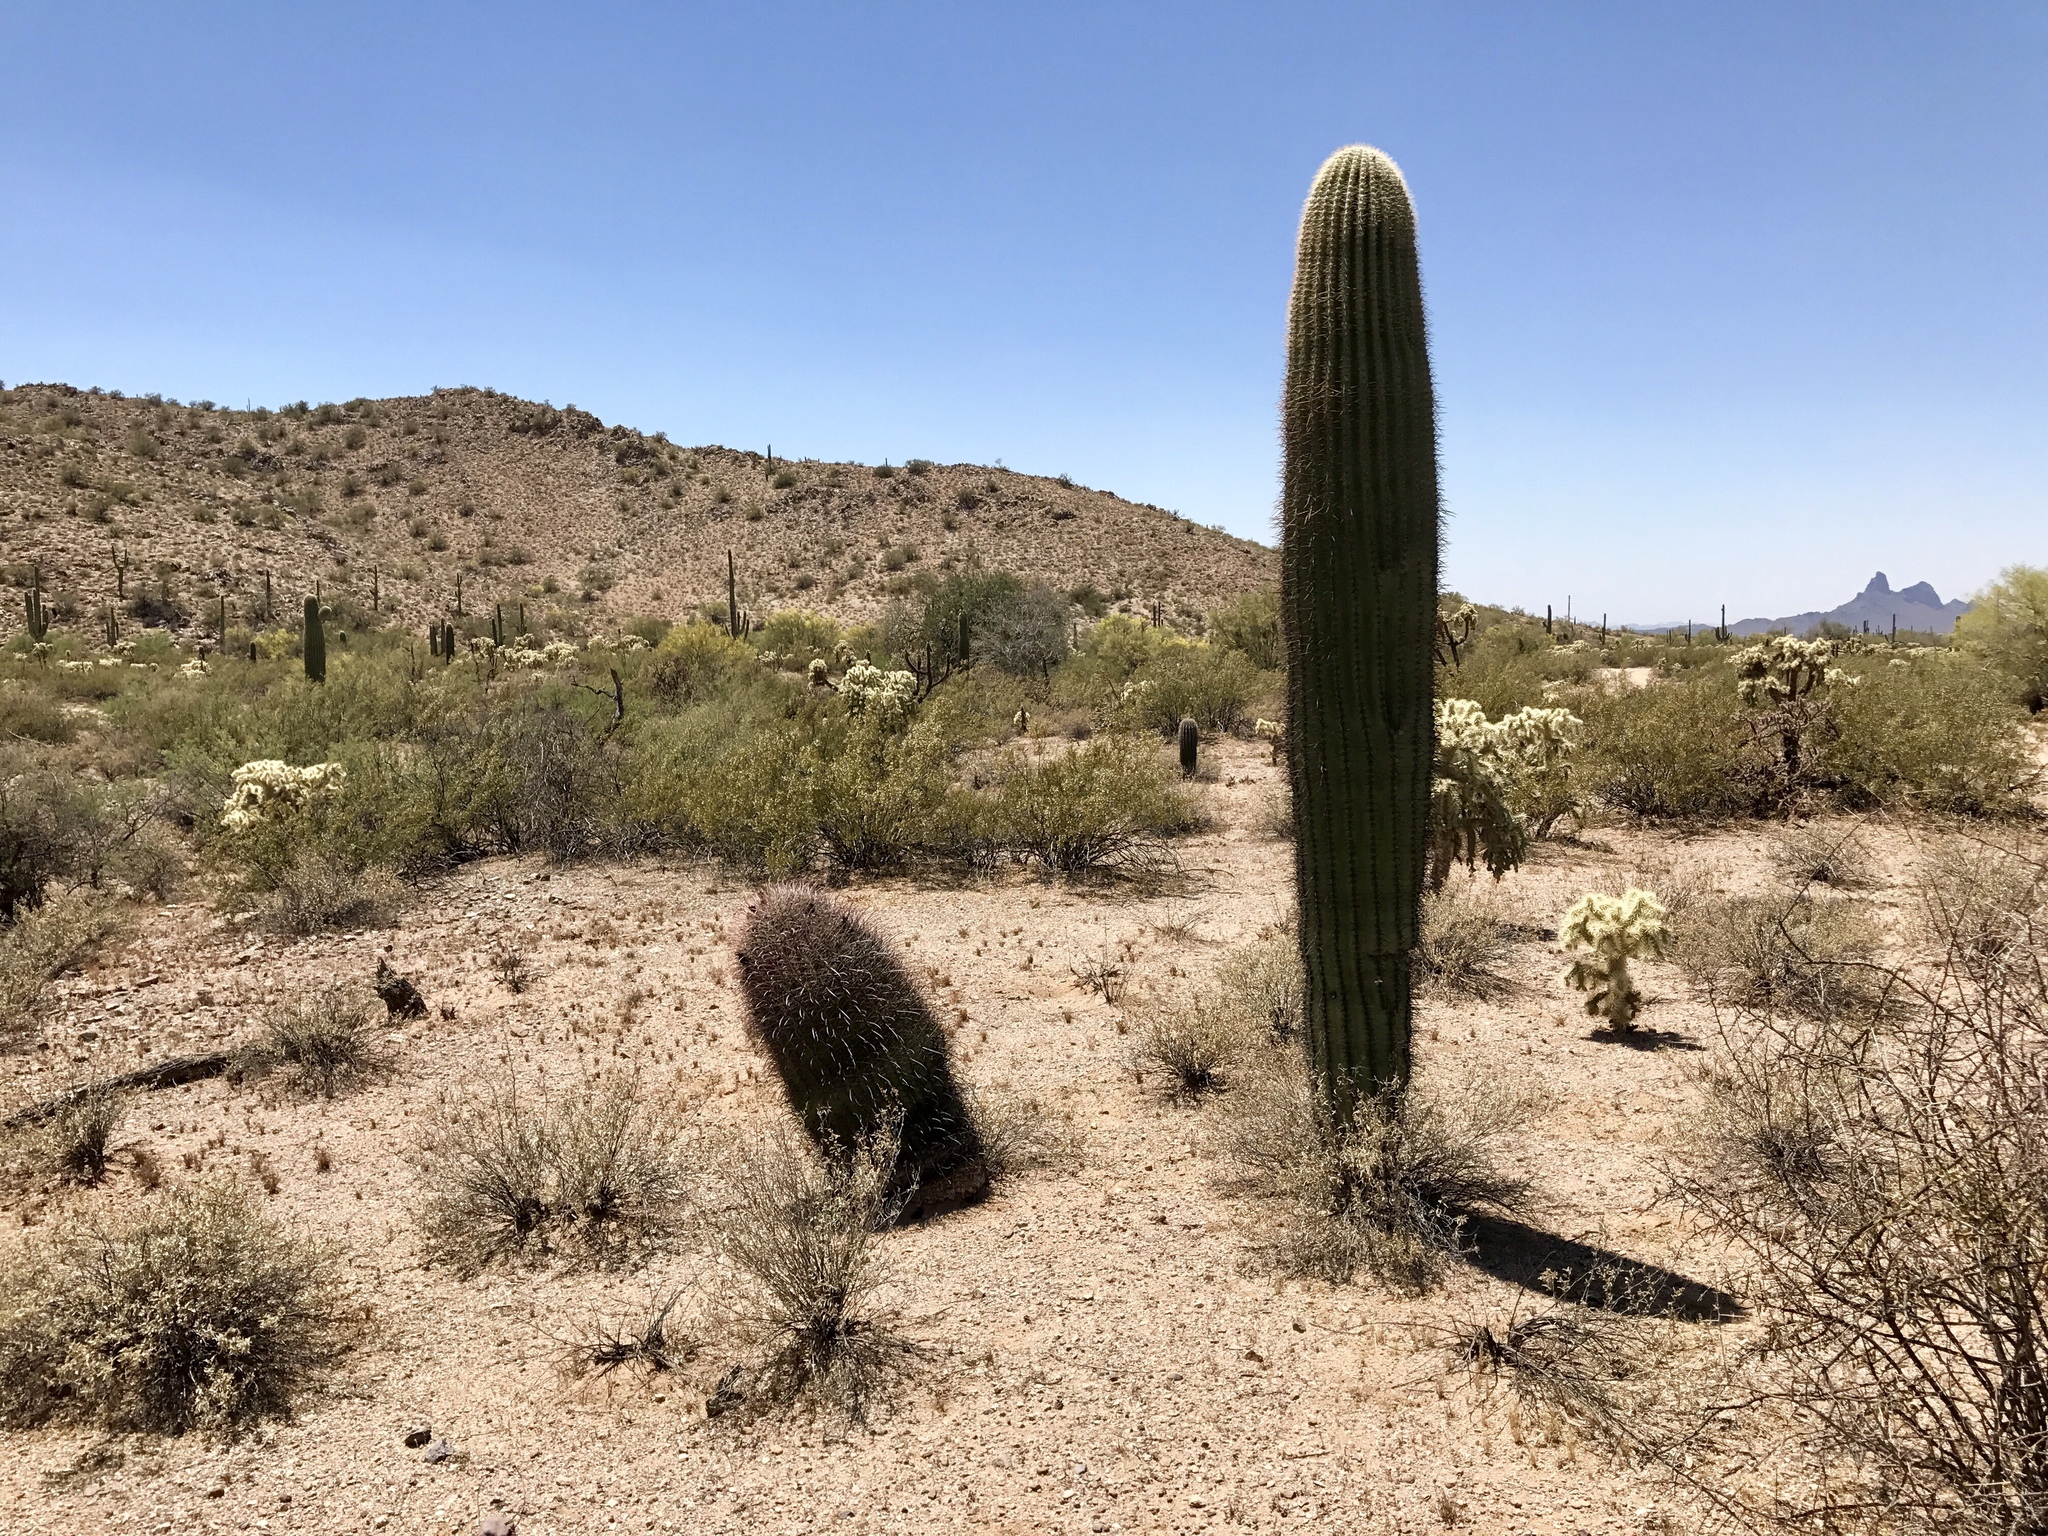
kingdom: Plantae
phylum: Tracheophyta
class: Magnoliopsida
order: Caryophyllales
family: Cactaceae
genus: Carnegiea
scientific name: Carnegiea gigantea
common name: Saguaro
